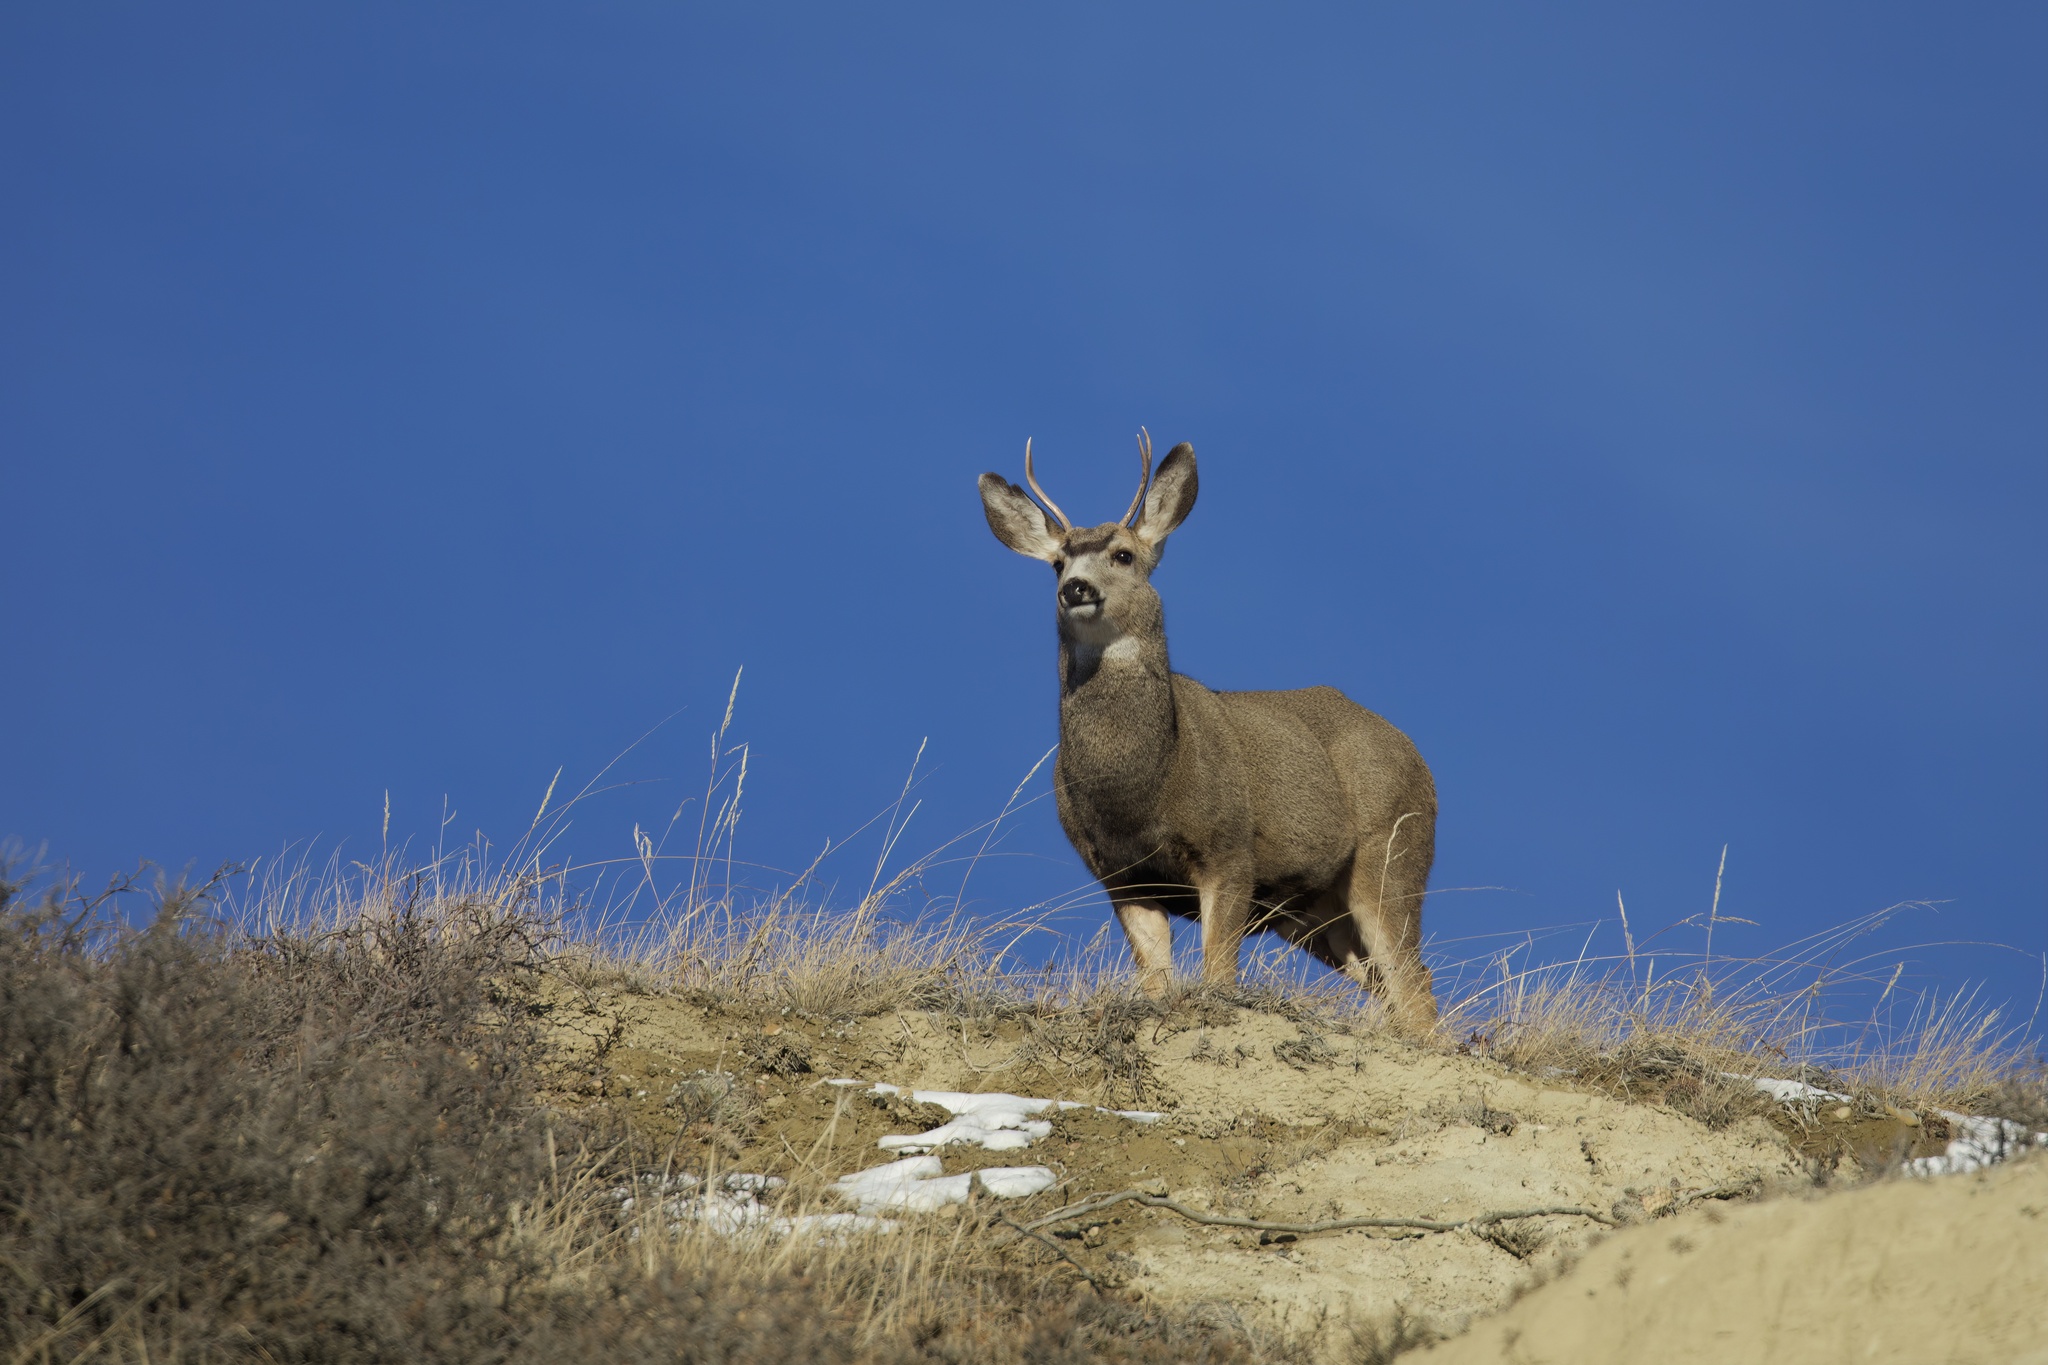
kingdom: Animalia
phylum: Chordata
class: Mammalia
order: Artiodactyla
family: Cervidae
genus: Odocoileus
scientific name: Odocoileus hemionus
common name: Mule deer
